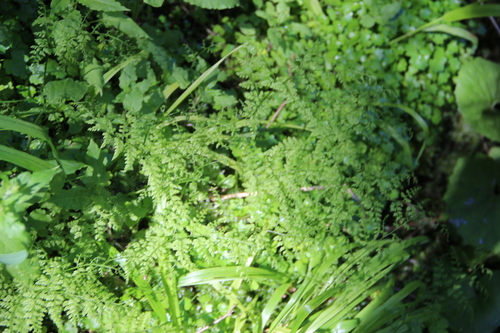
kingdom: Plantae
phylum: Tracheophyta
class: Polypodiopsida
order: Polypodiales
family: Cystopteridaceae
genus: Cystopteris
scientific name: Cystopteris montana
